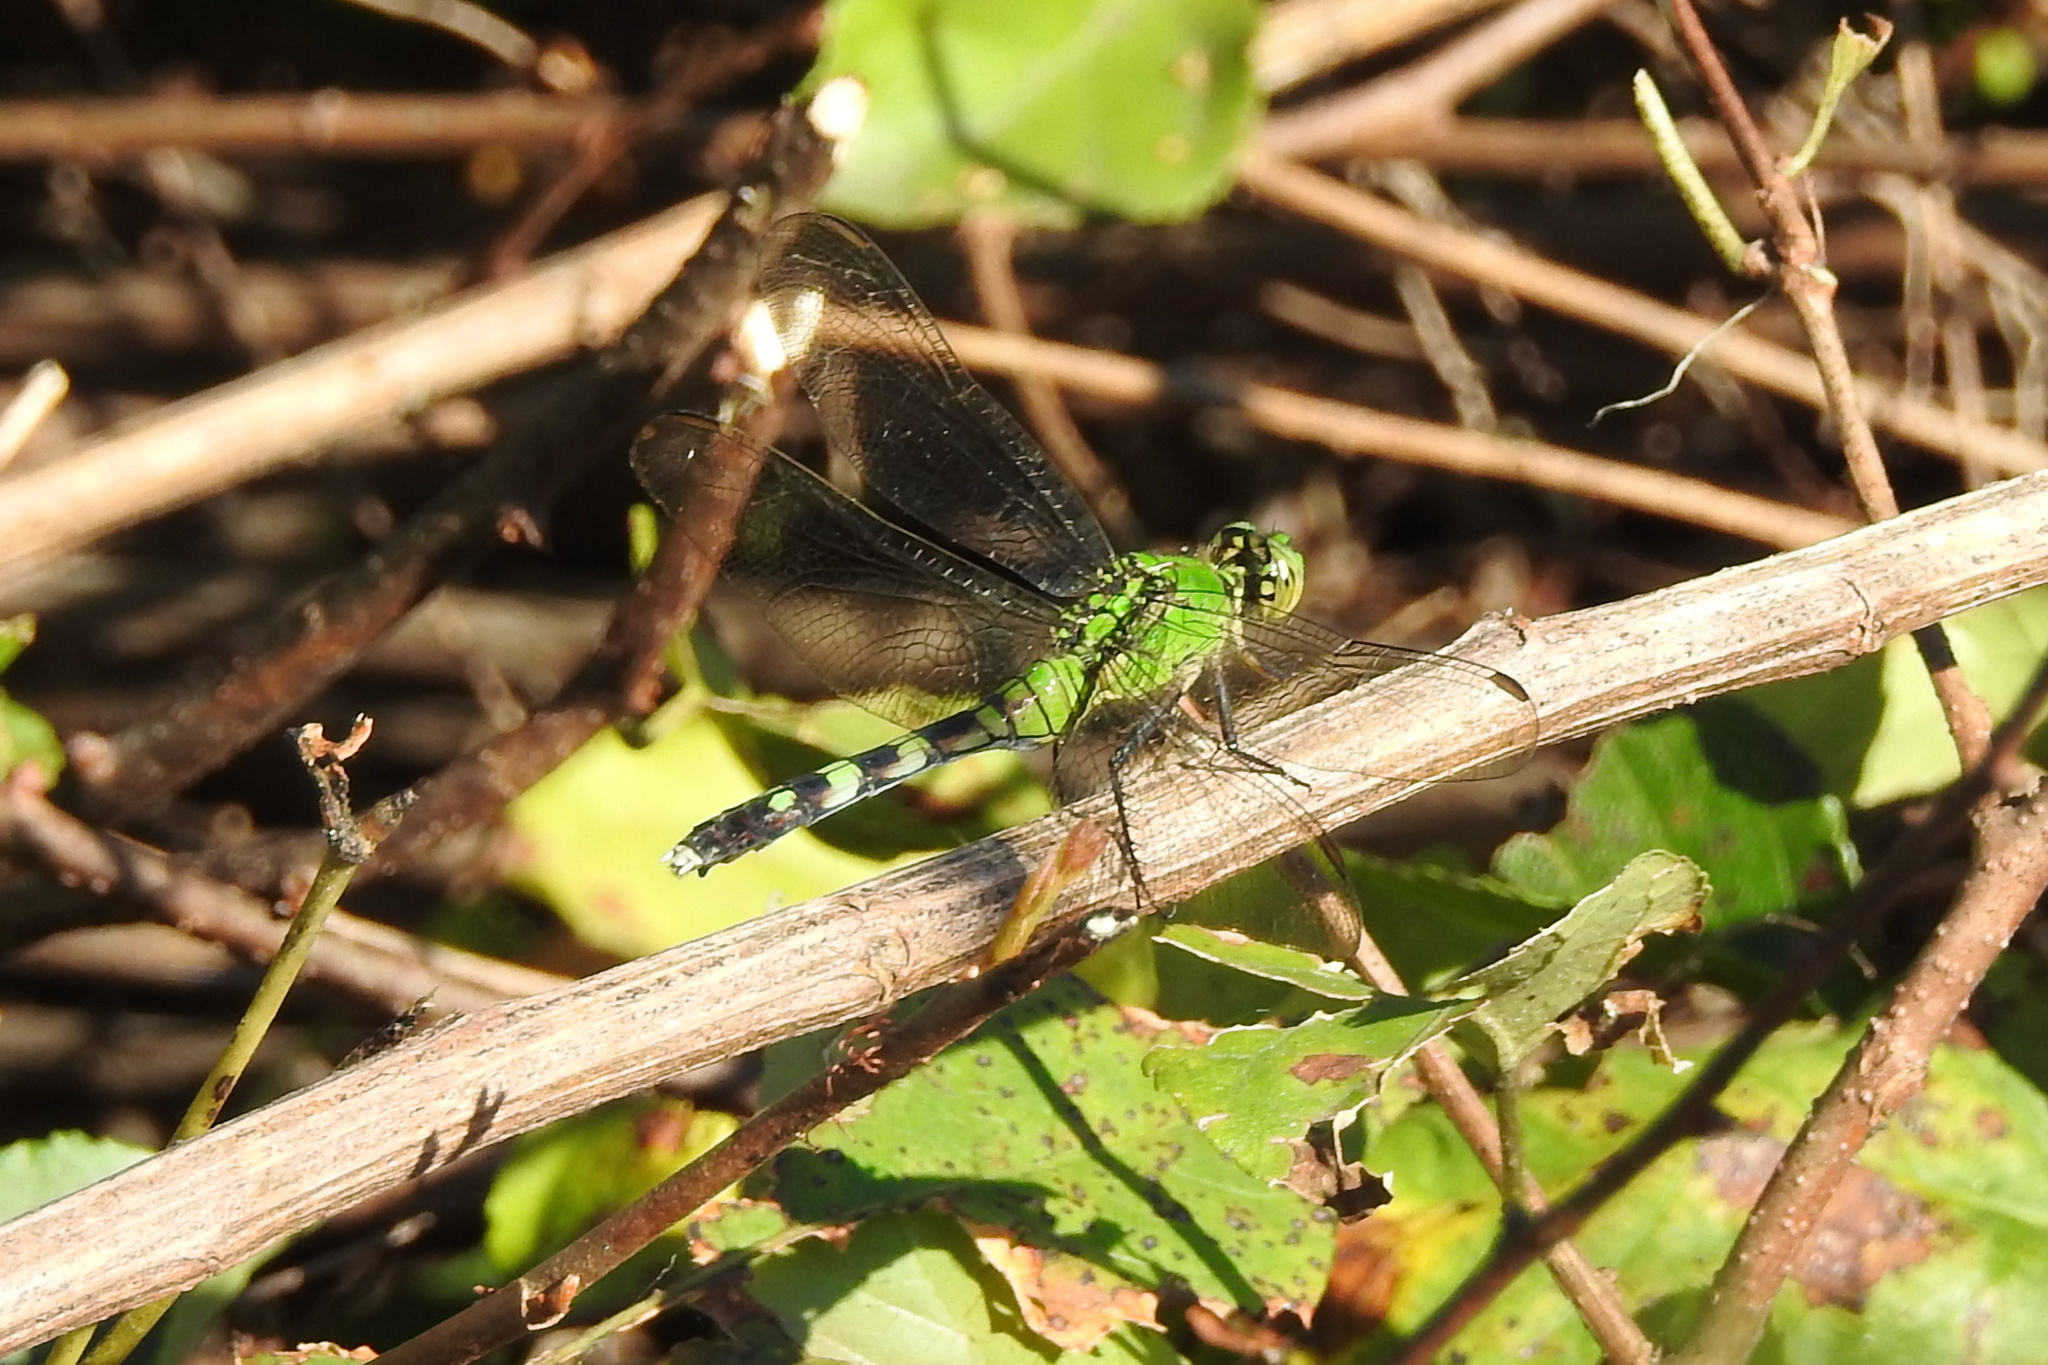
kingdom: Animalia
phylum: Arthropoda
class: Insecta
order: Odonata
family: Libellulidae
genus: Erythemis
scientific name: Erythemis simplicicollis
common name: Eastern pondhawk
